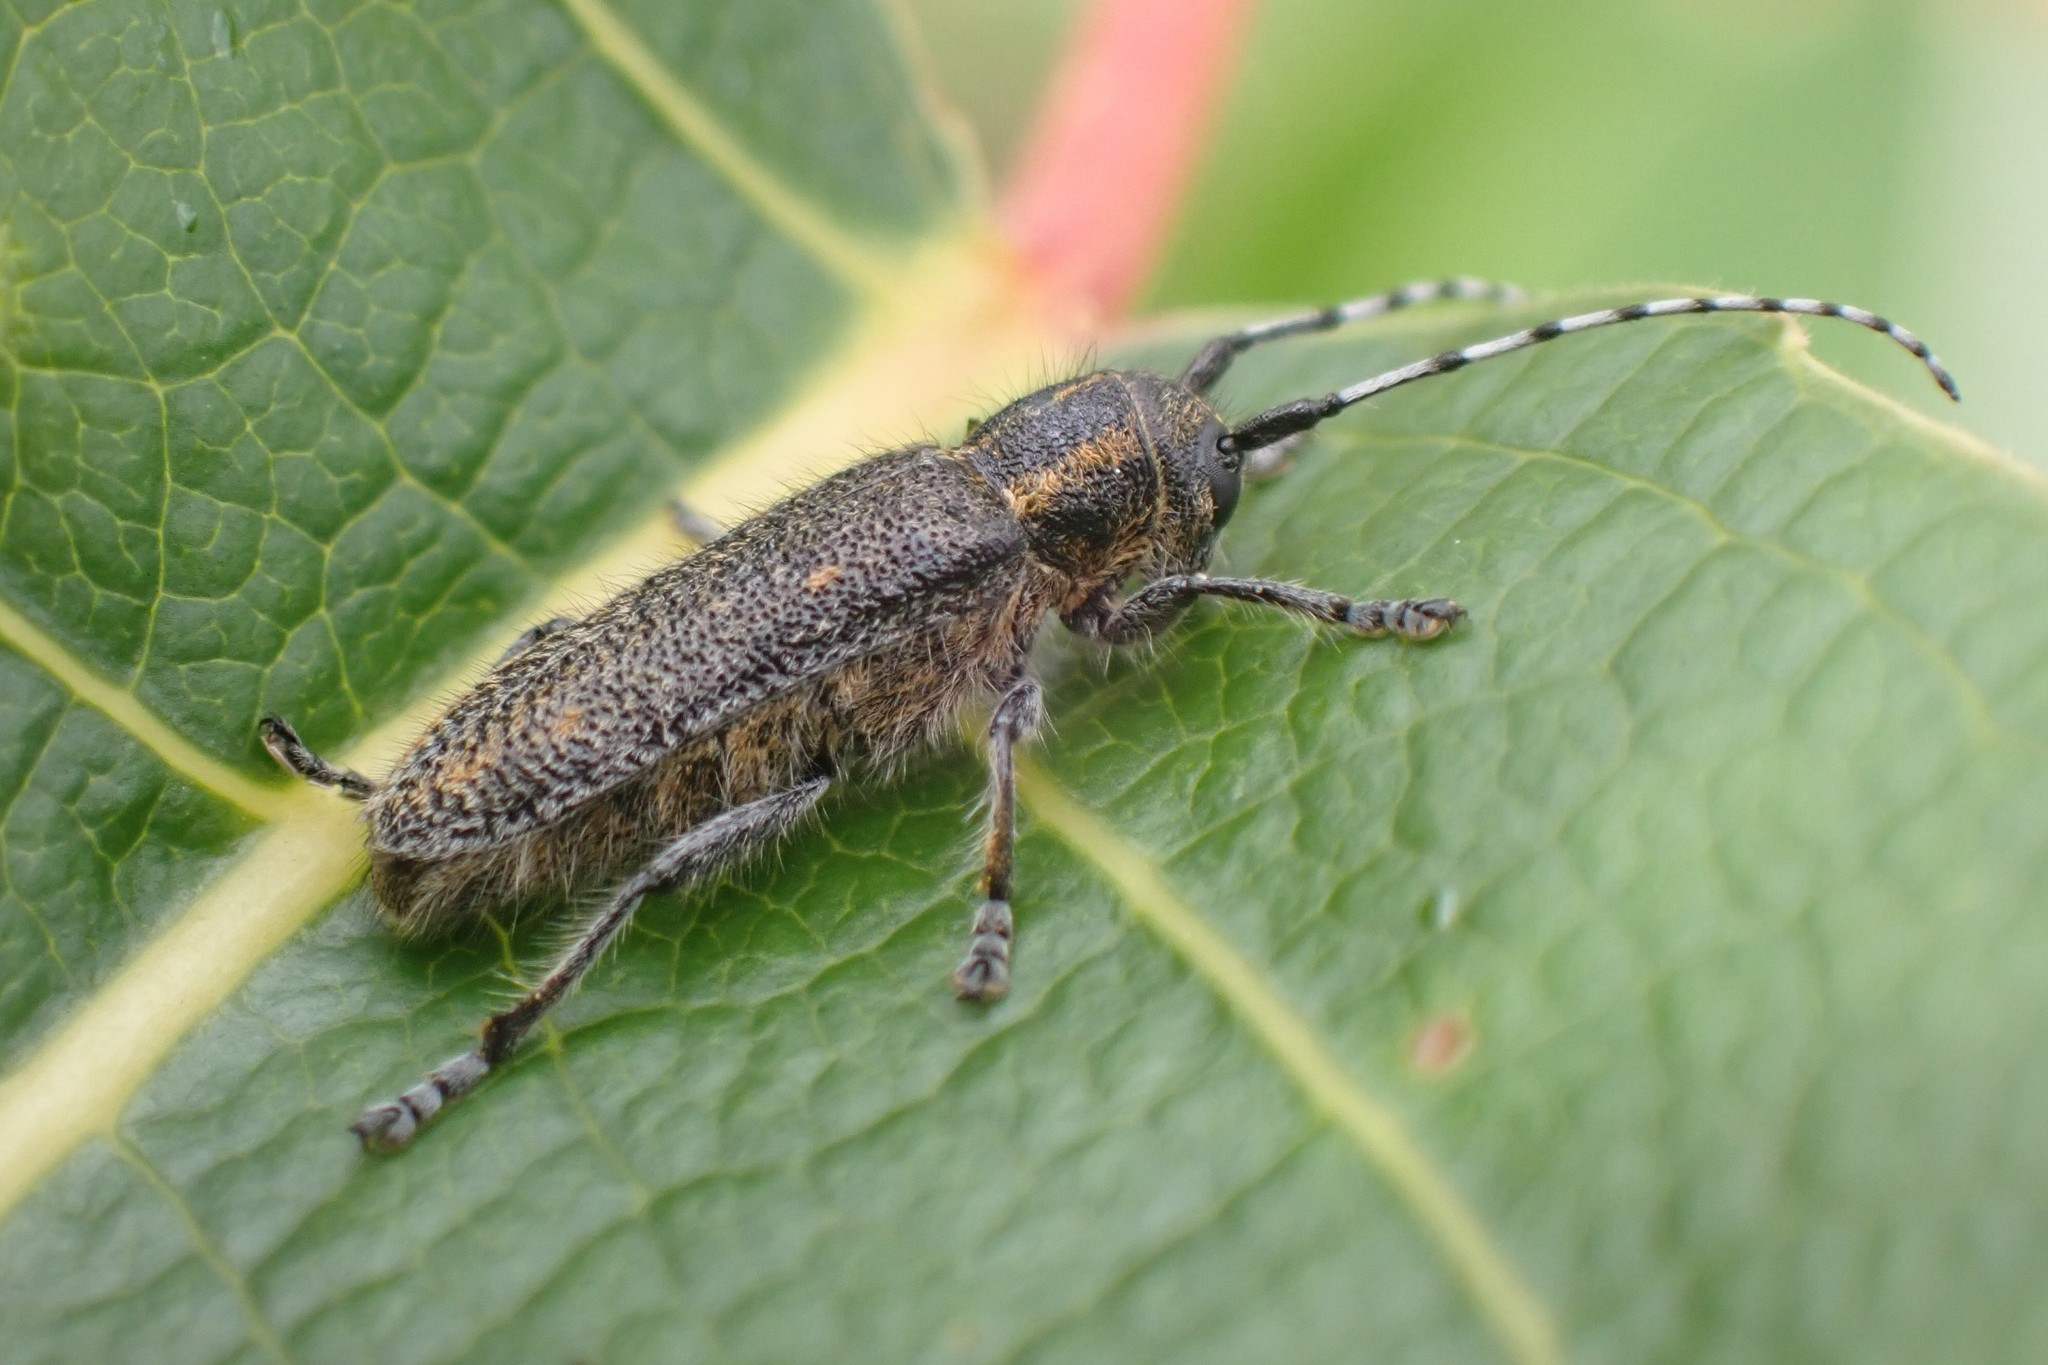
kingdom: Animalia
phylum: Arthropoda
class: Insecta
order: Coleoptera
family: Cerambycidae
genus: Saperda
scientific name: Saperda moesta
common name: Long-horned beetle
